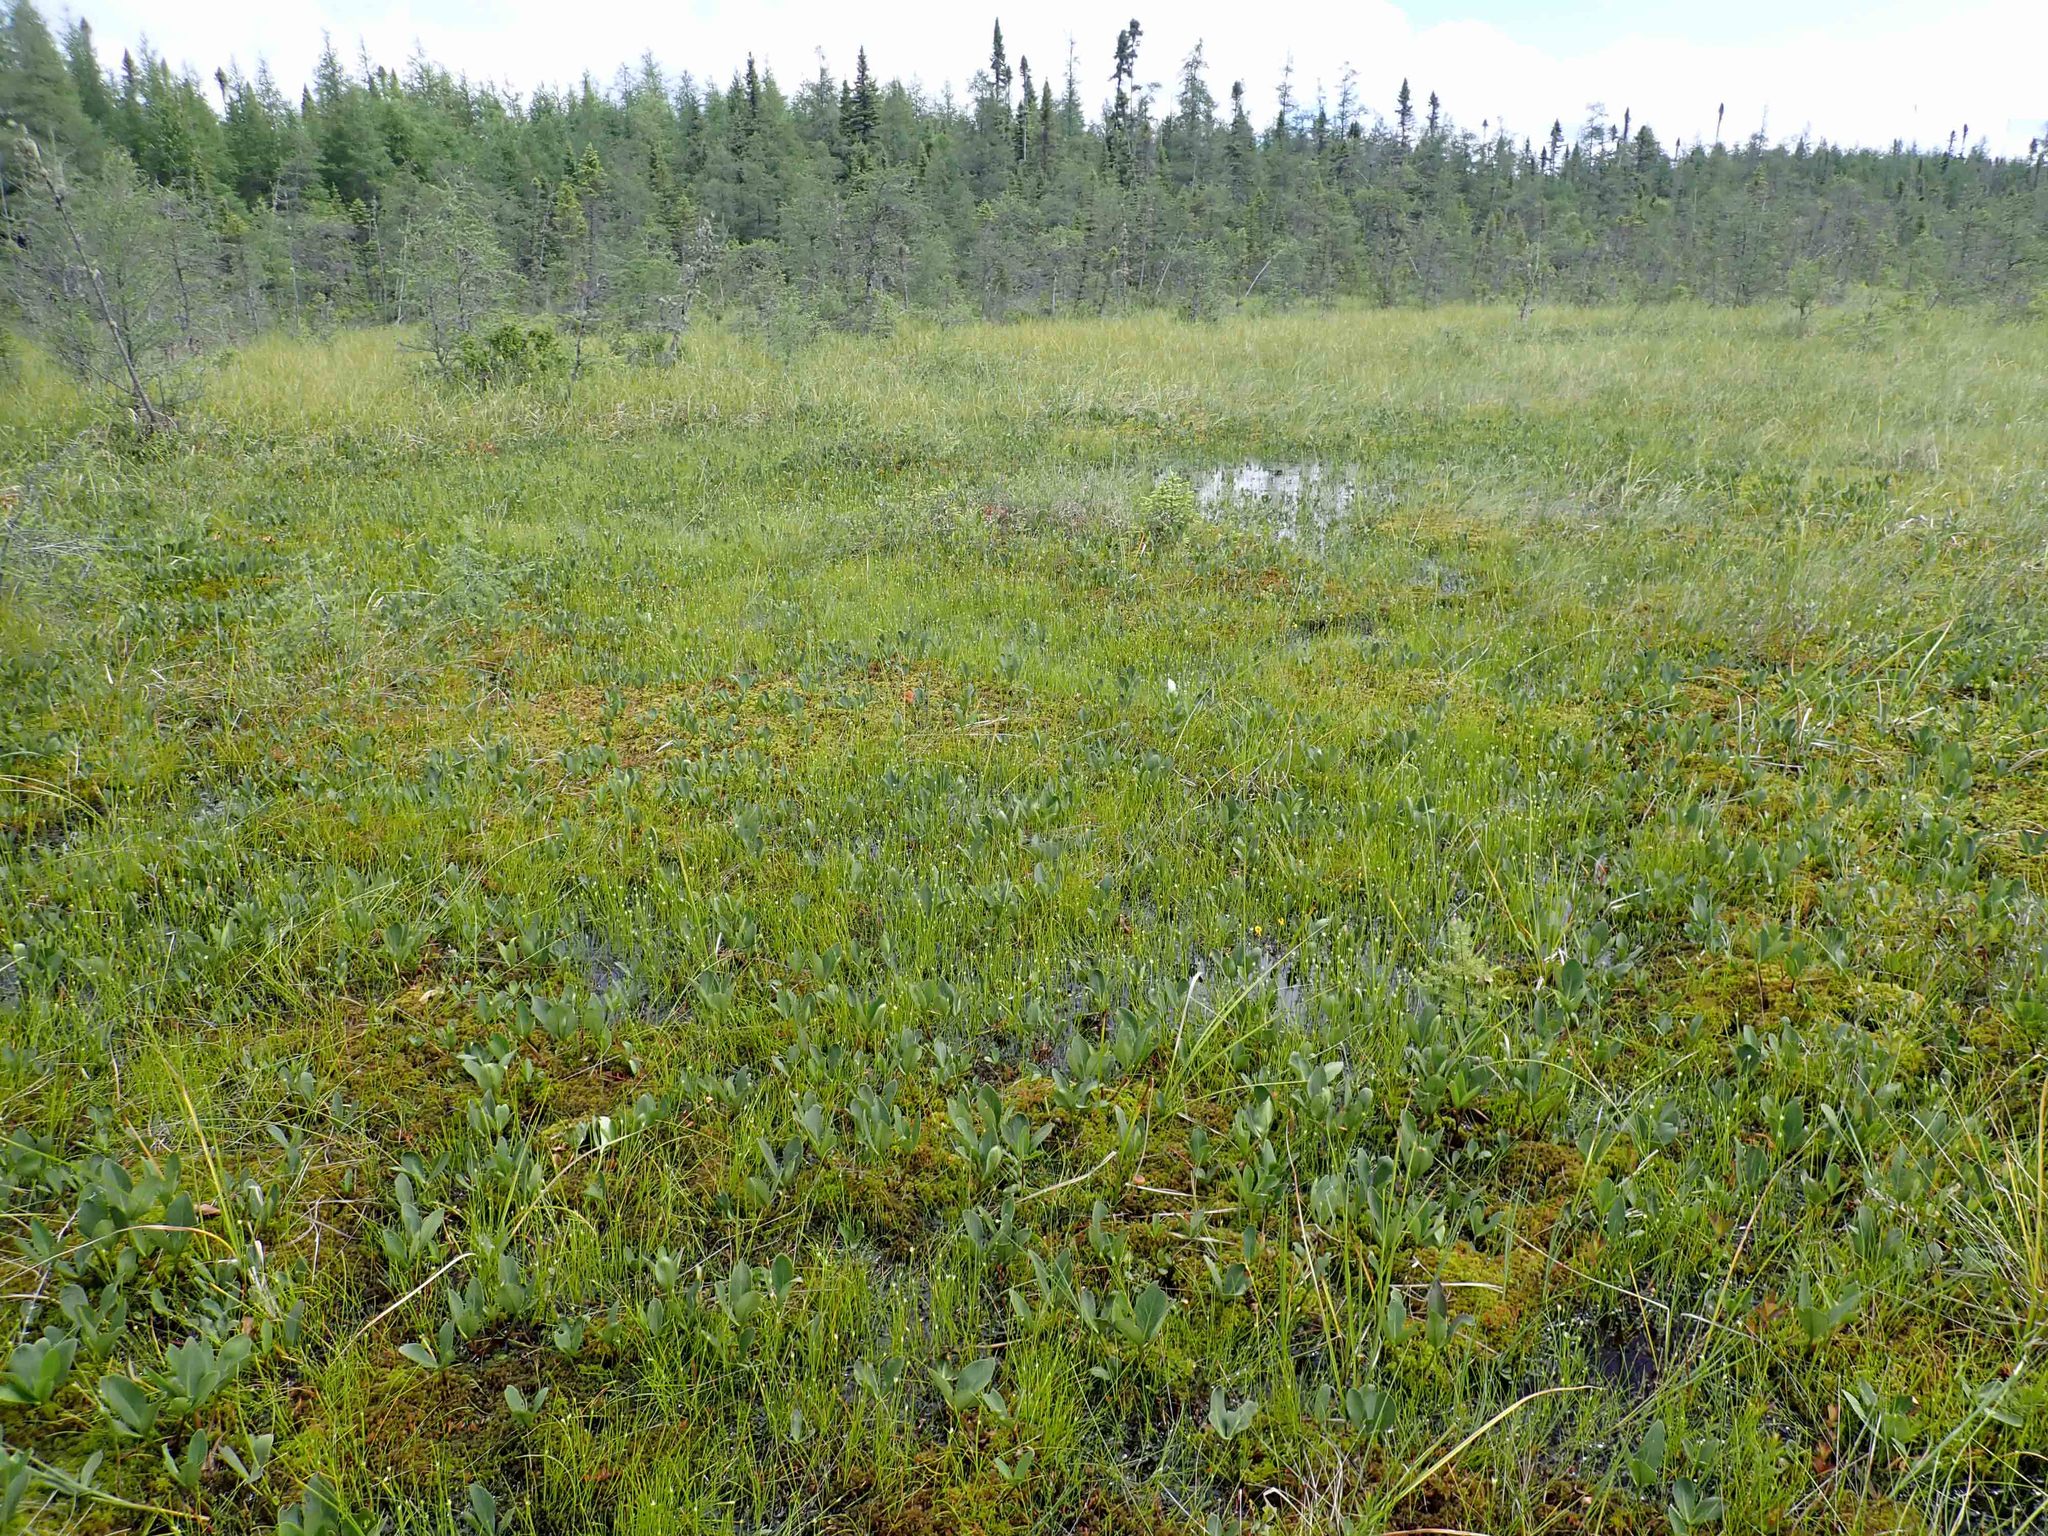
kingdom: Plantae
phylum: Tracheophyta
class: Magnoliopsida
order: Asterales
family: Menyanthaceae
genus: Menyanthes
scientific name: Menyanthes trifoliata
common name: Bogbean
